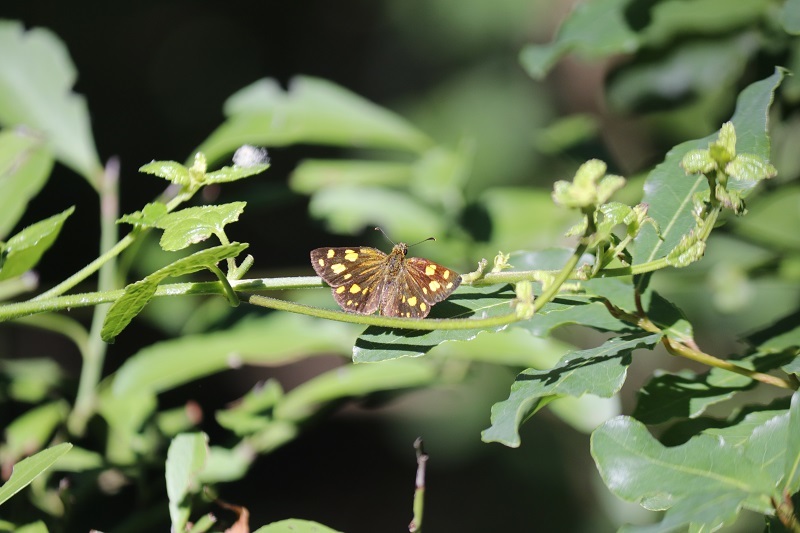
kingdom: Animalia
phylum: Arthropoda
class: Insecta
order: Lepidoptera
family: Hesperiidae
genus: Metisella
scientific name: Metisella metis
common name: Western gold-spotted sylph
